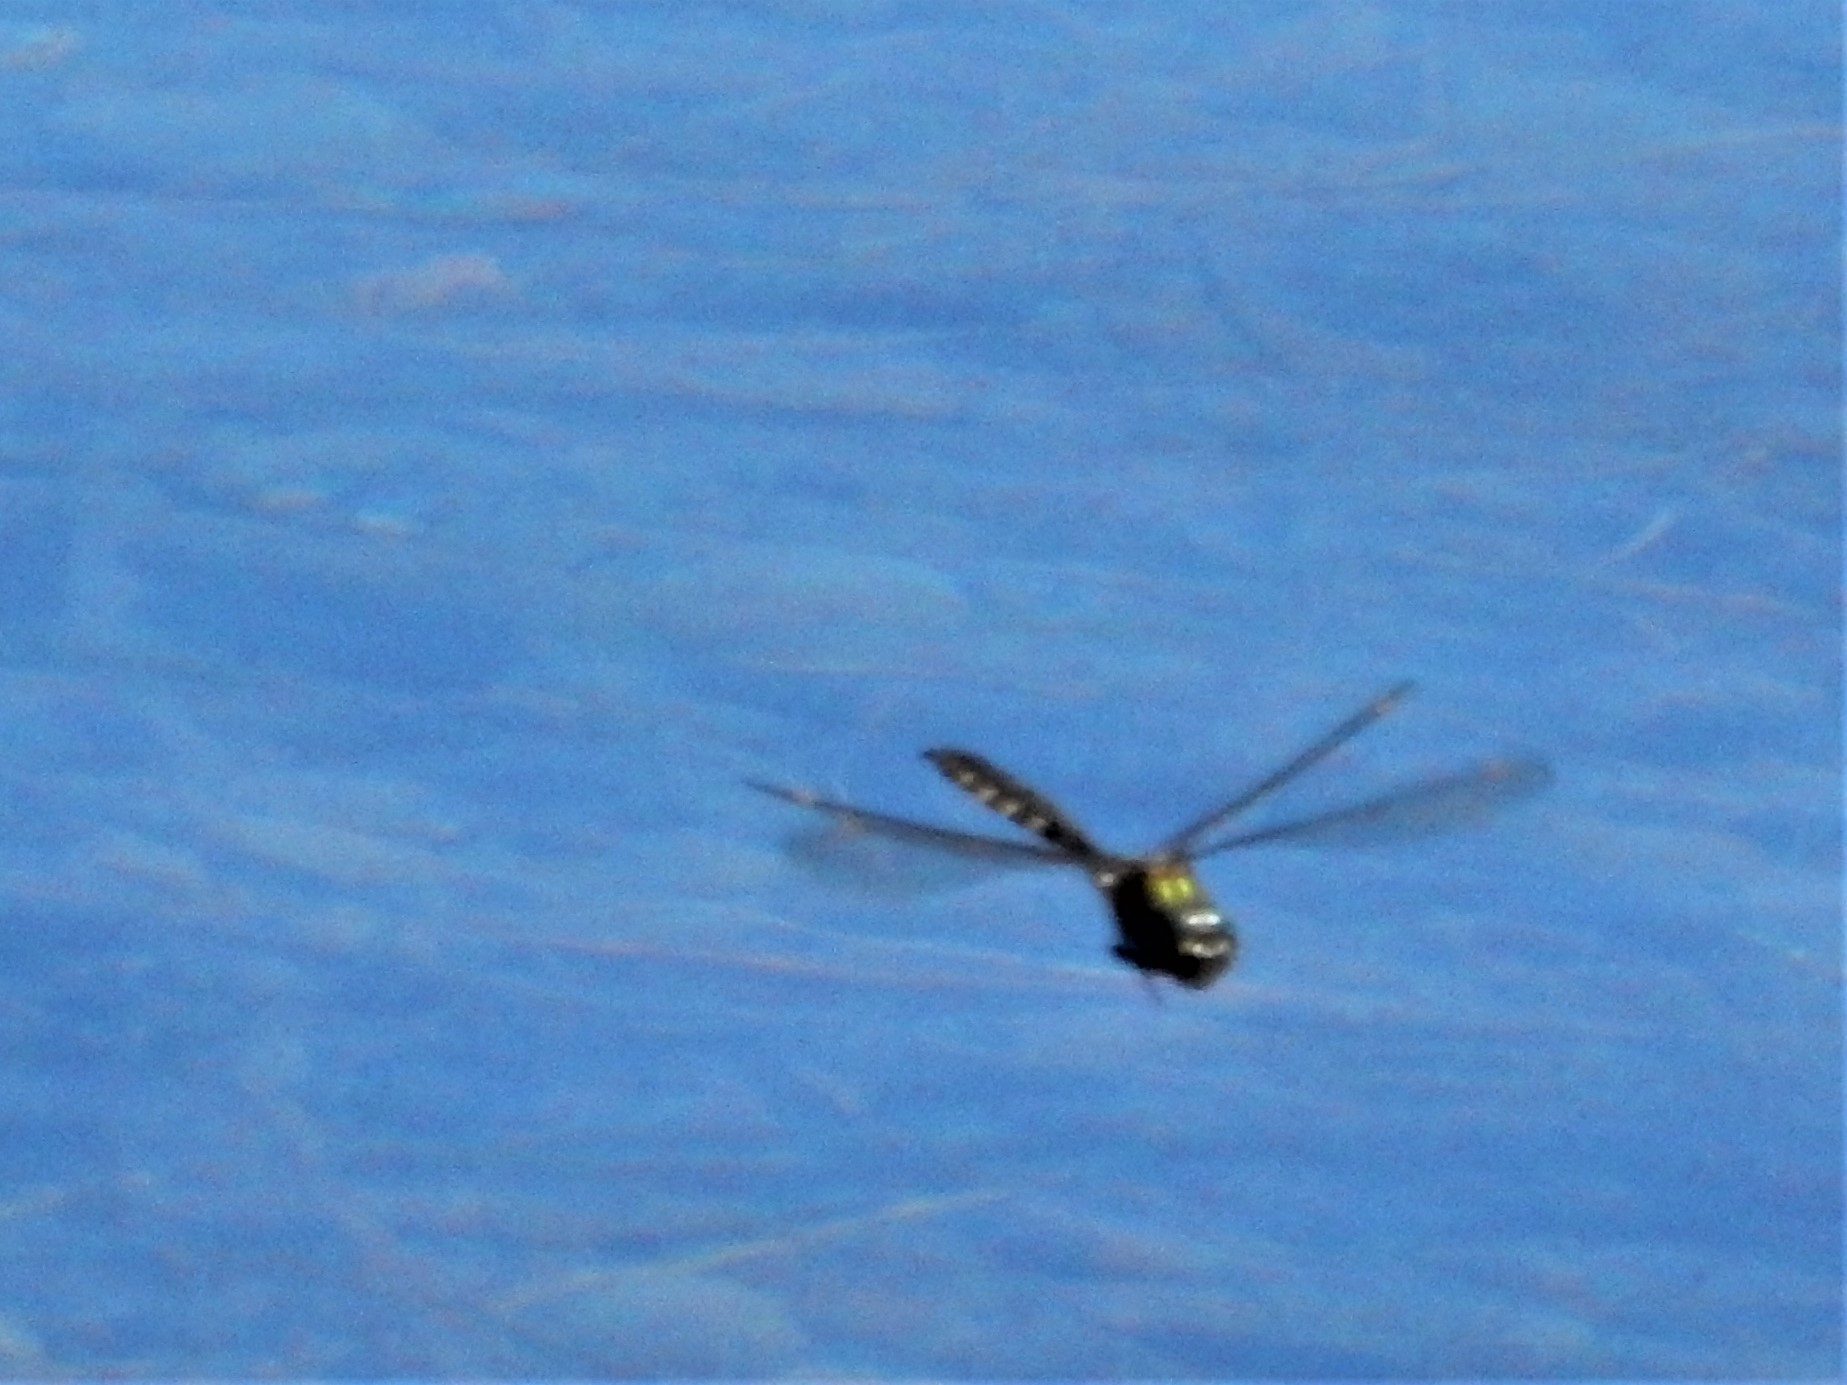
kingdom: Animalia
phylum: Arthropoda
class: Insecta
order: Odonata
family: Corduliidae
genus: Procordulia
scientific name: Procordulia grayi
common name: Yellow spotted dragonfly
